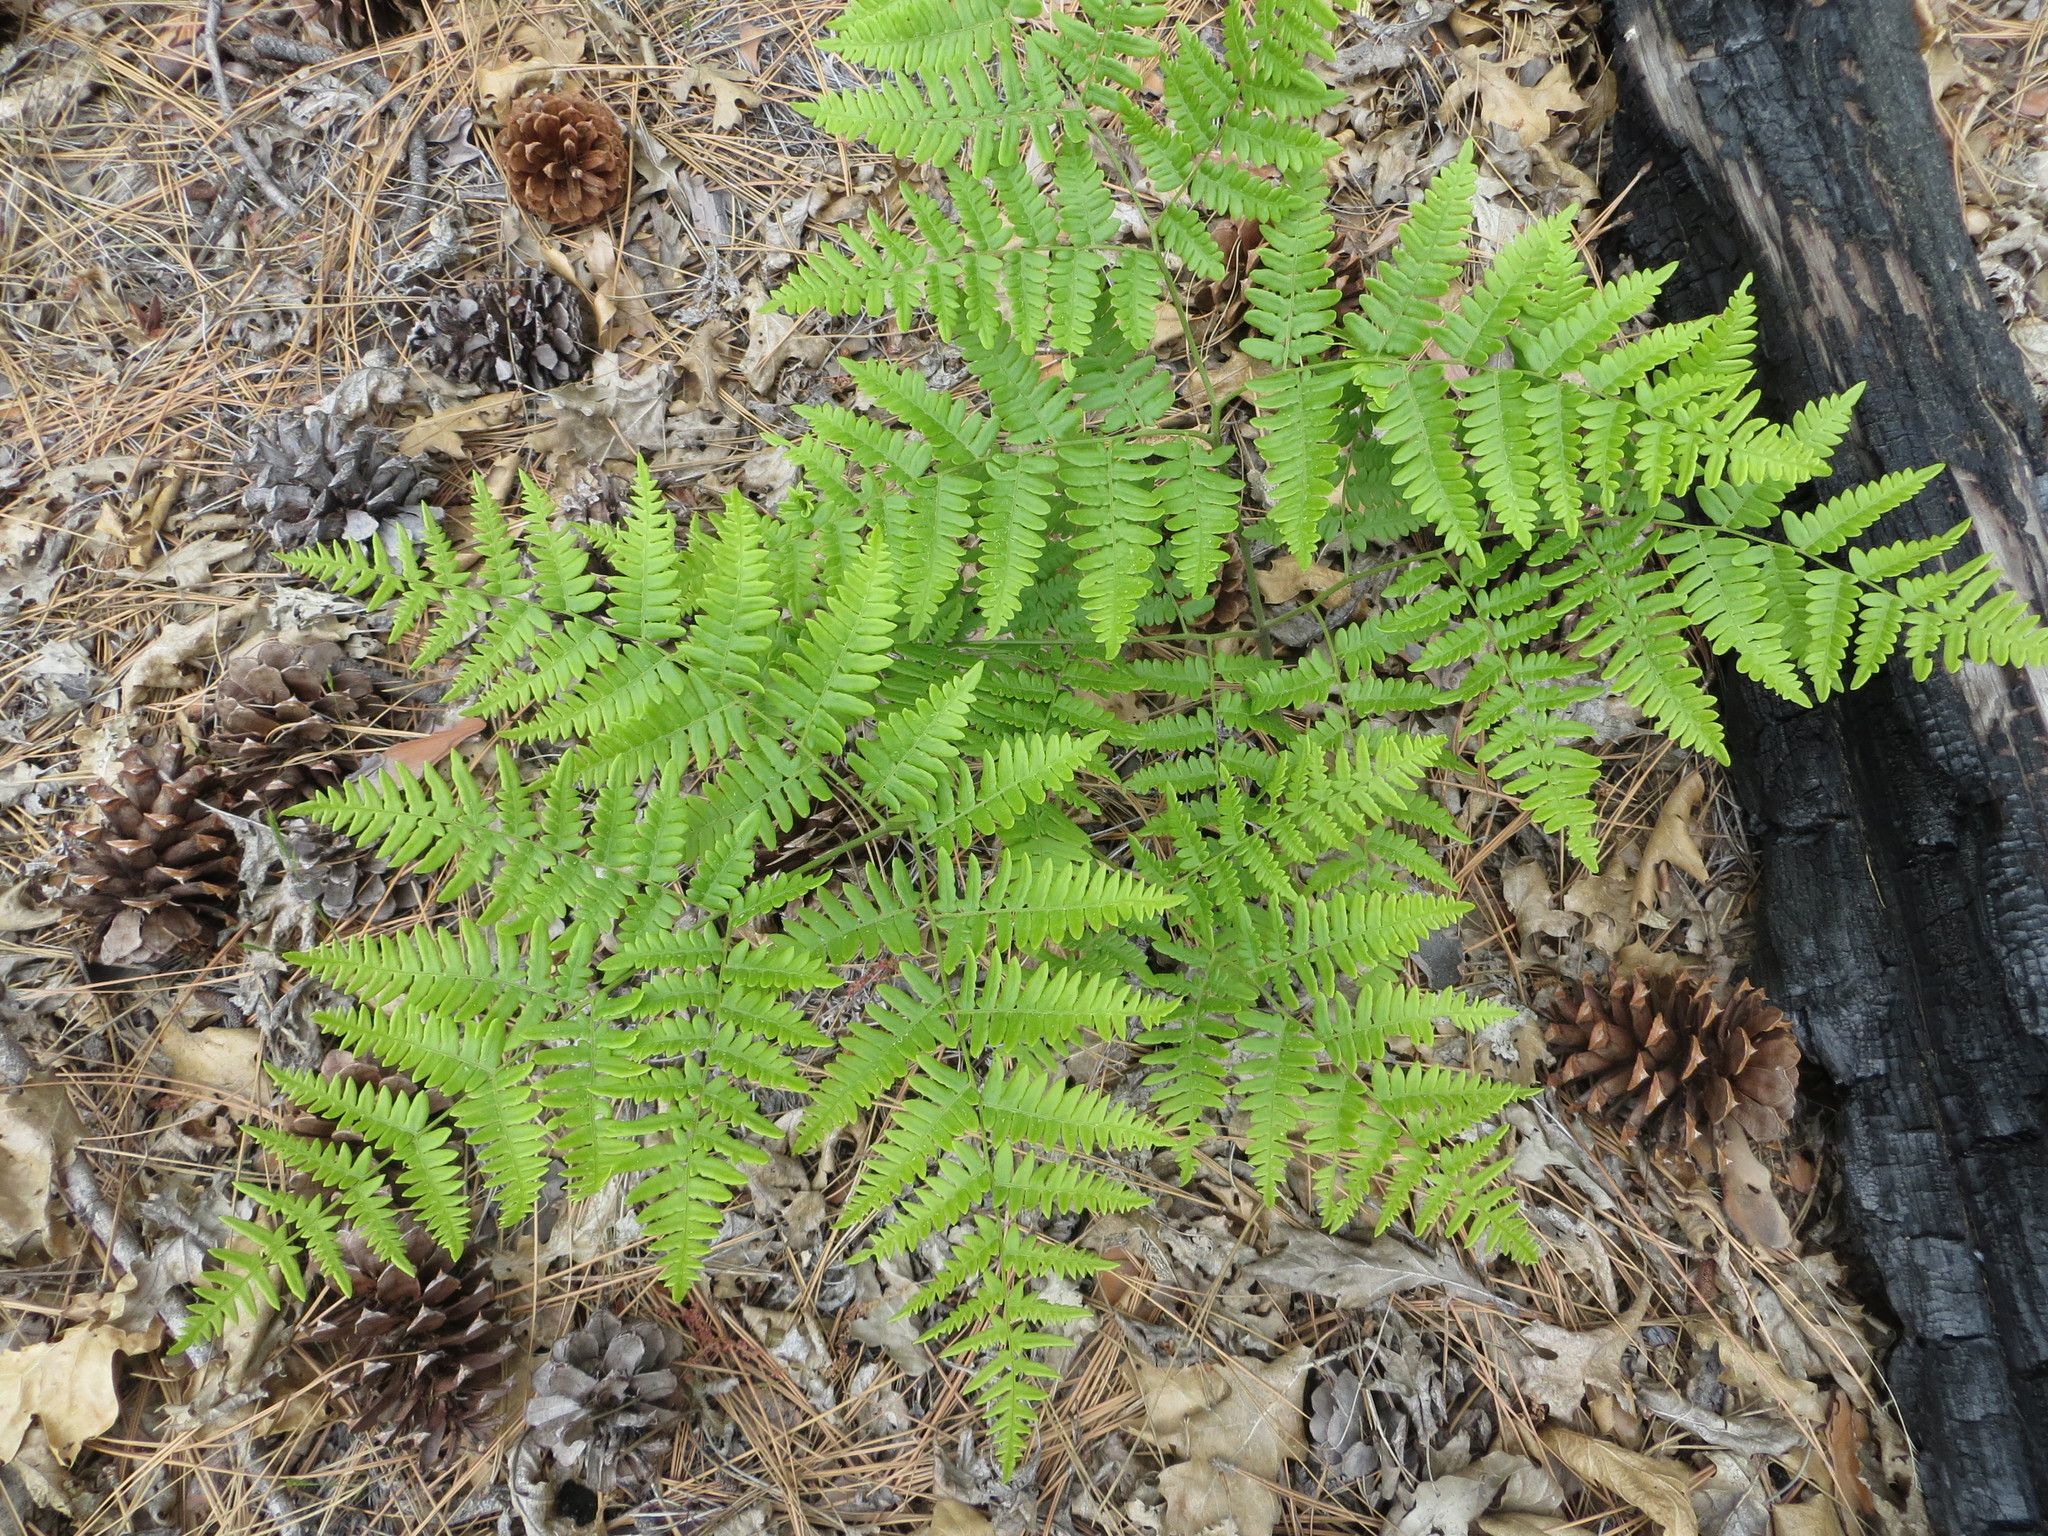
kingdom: Plantae
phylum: Tracheophyta
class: Polypodiopsida
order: Polypodiales
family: Dennstaedtiaceae
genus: Pteridium
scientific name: Pteridium aquilinum
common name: Bracken
